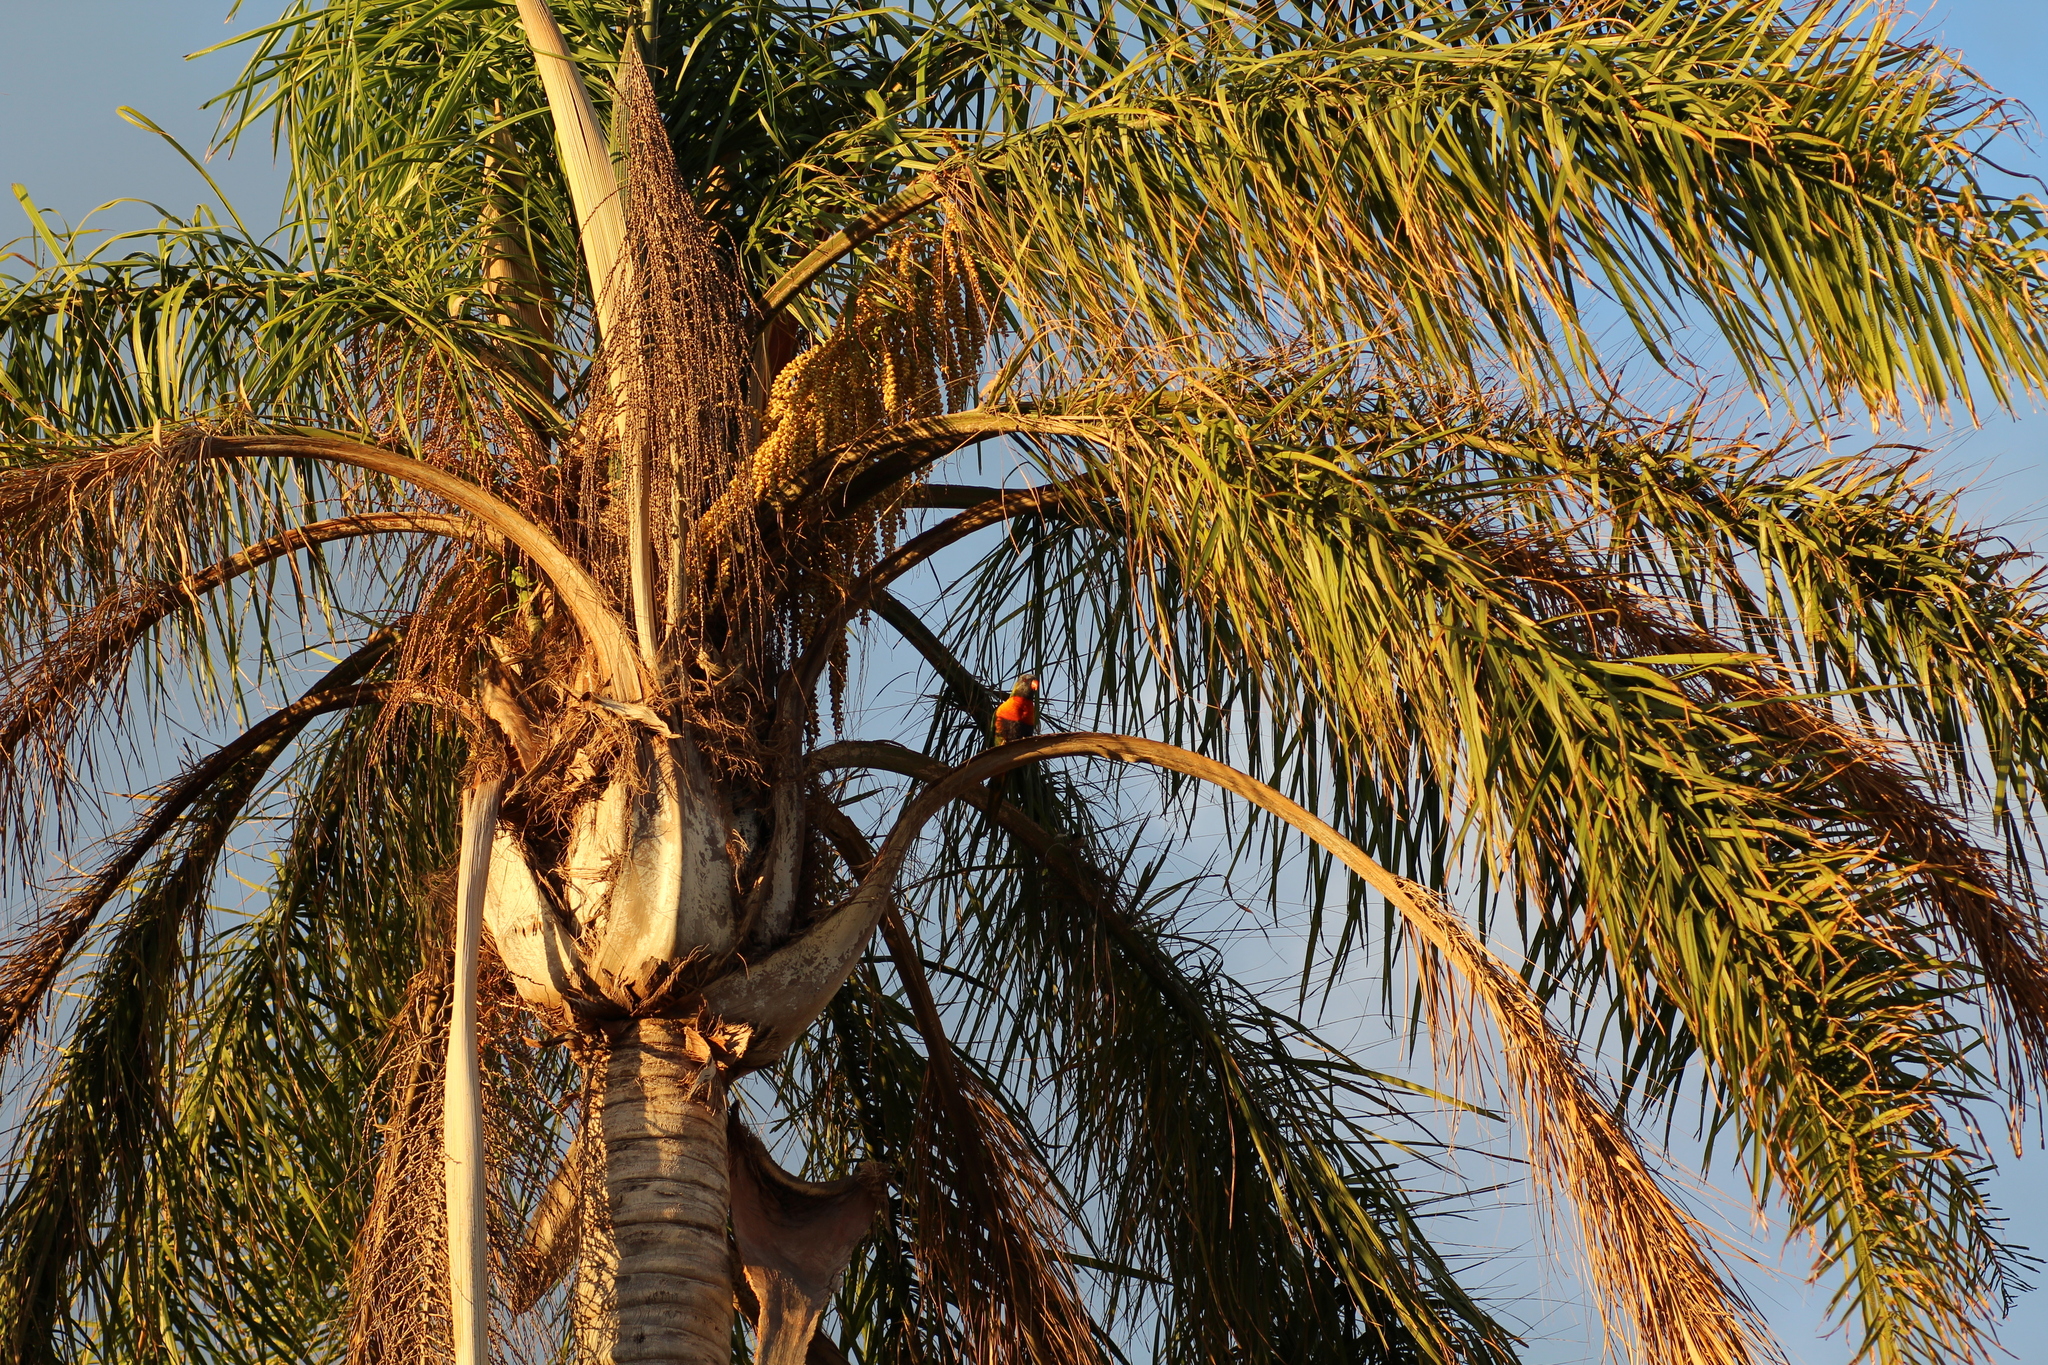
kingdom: Animalia
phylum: Chordata
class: Aves
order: Psittaciformes
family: Psittacidae
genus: Trichoglossus
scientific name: Trichoglossus haematodus
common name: Coconut lorikeet
